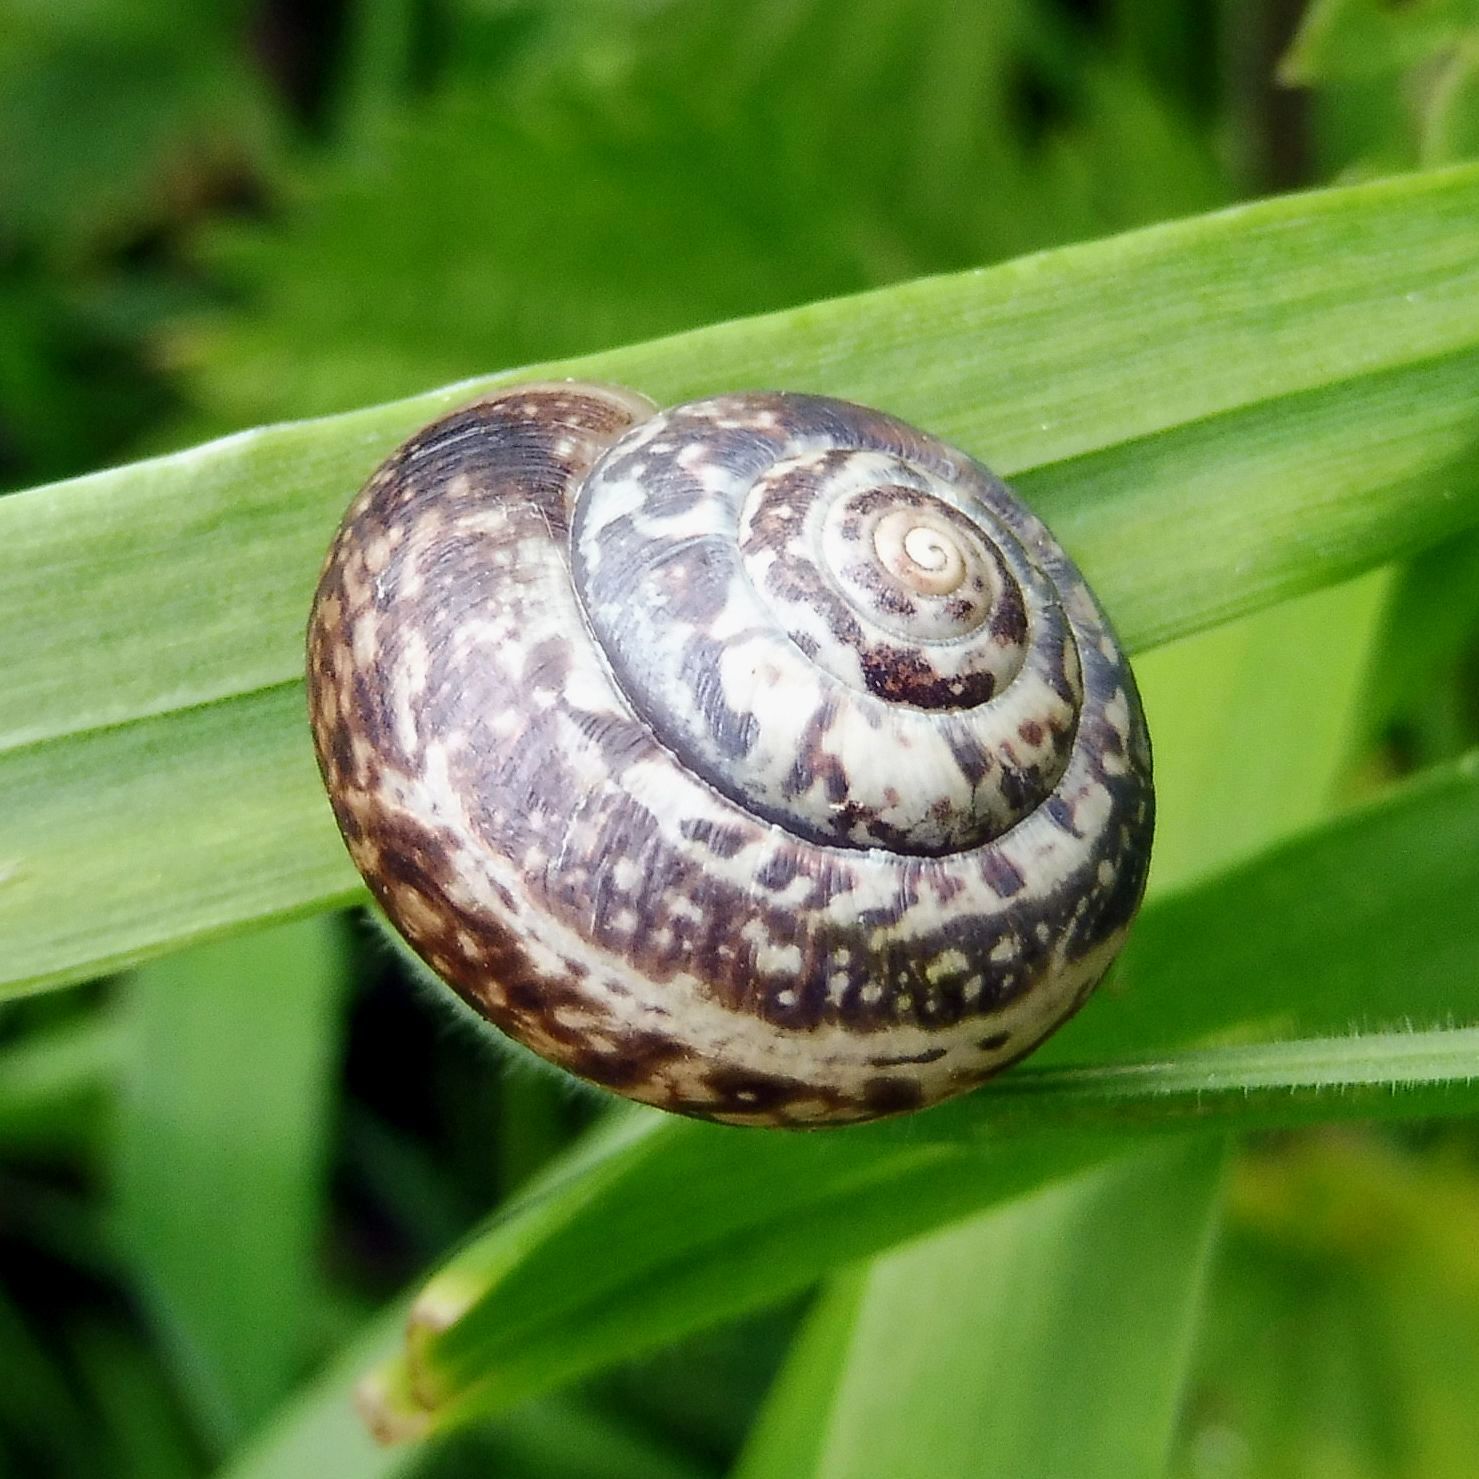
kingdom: Animalia
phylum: Mollusca
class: Gastropoda
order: Stylommatophora
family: Hygromiidae
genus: Monacha
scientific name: Monacha cantiana
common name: Kentish snail
